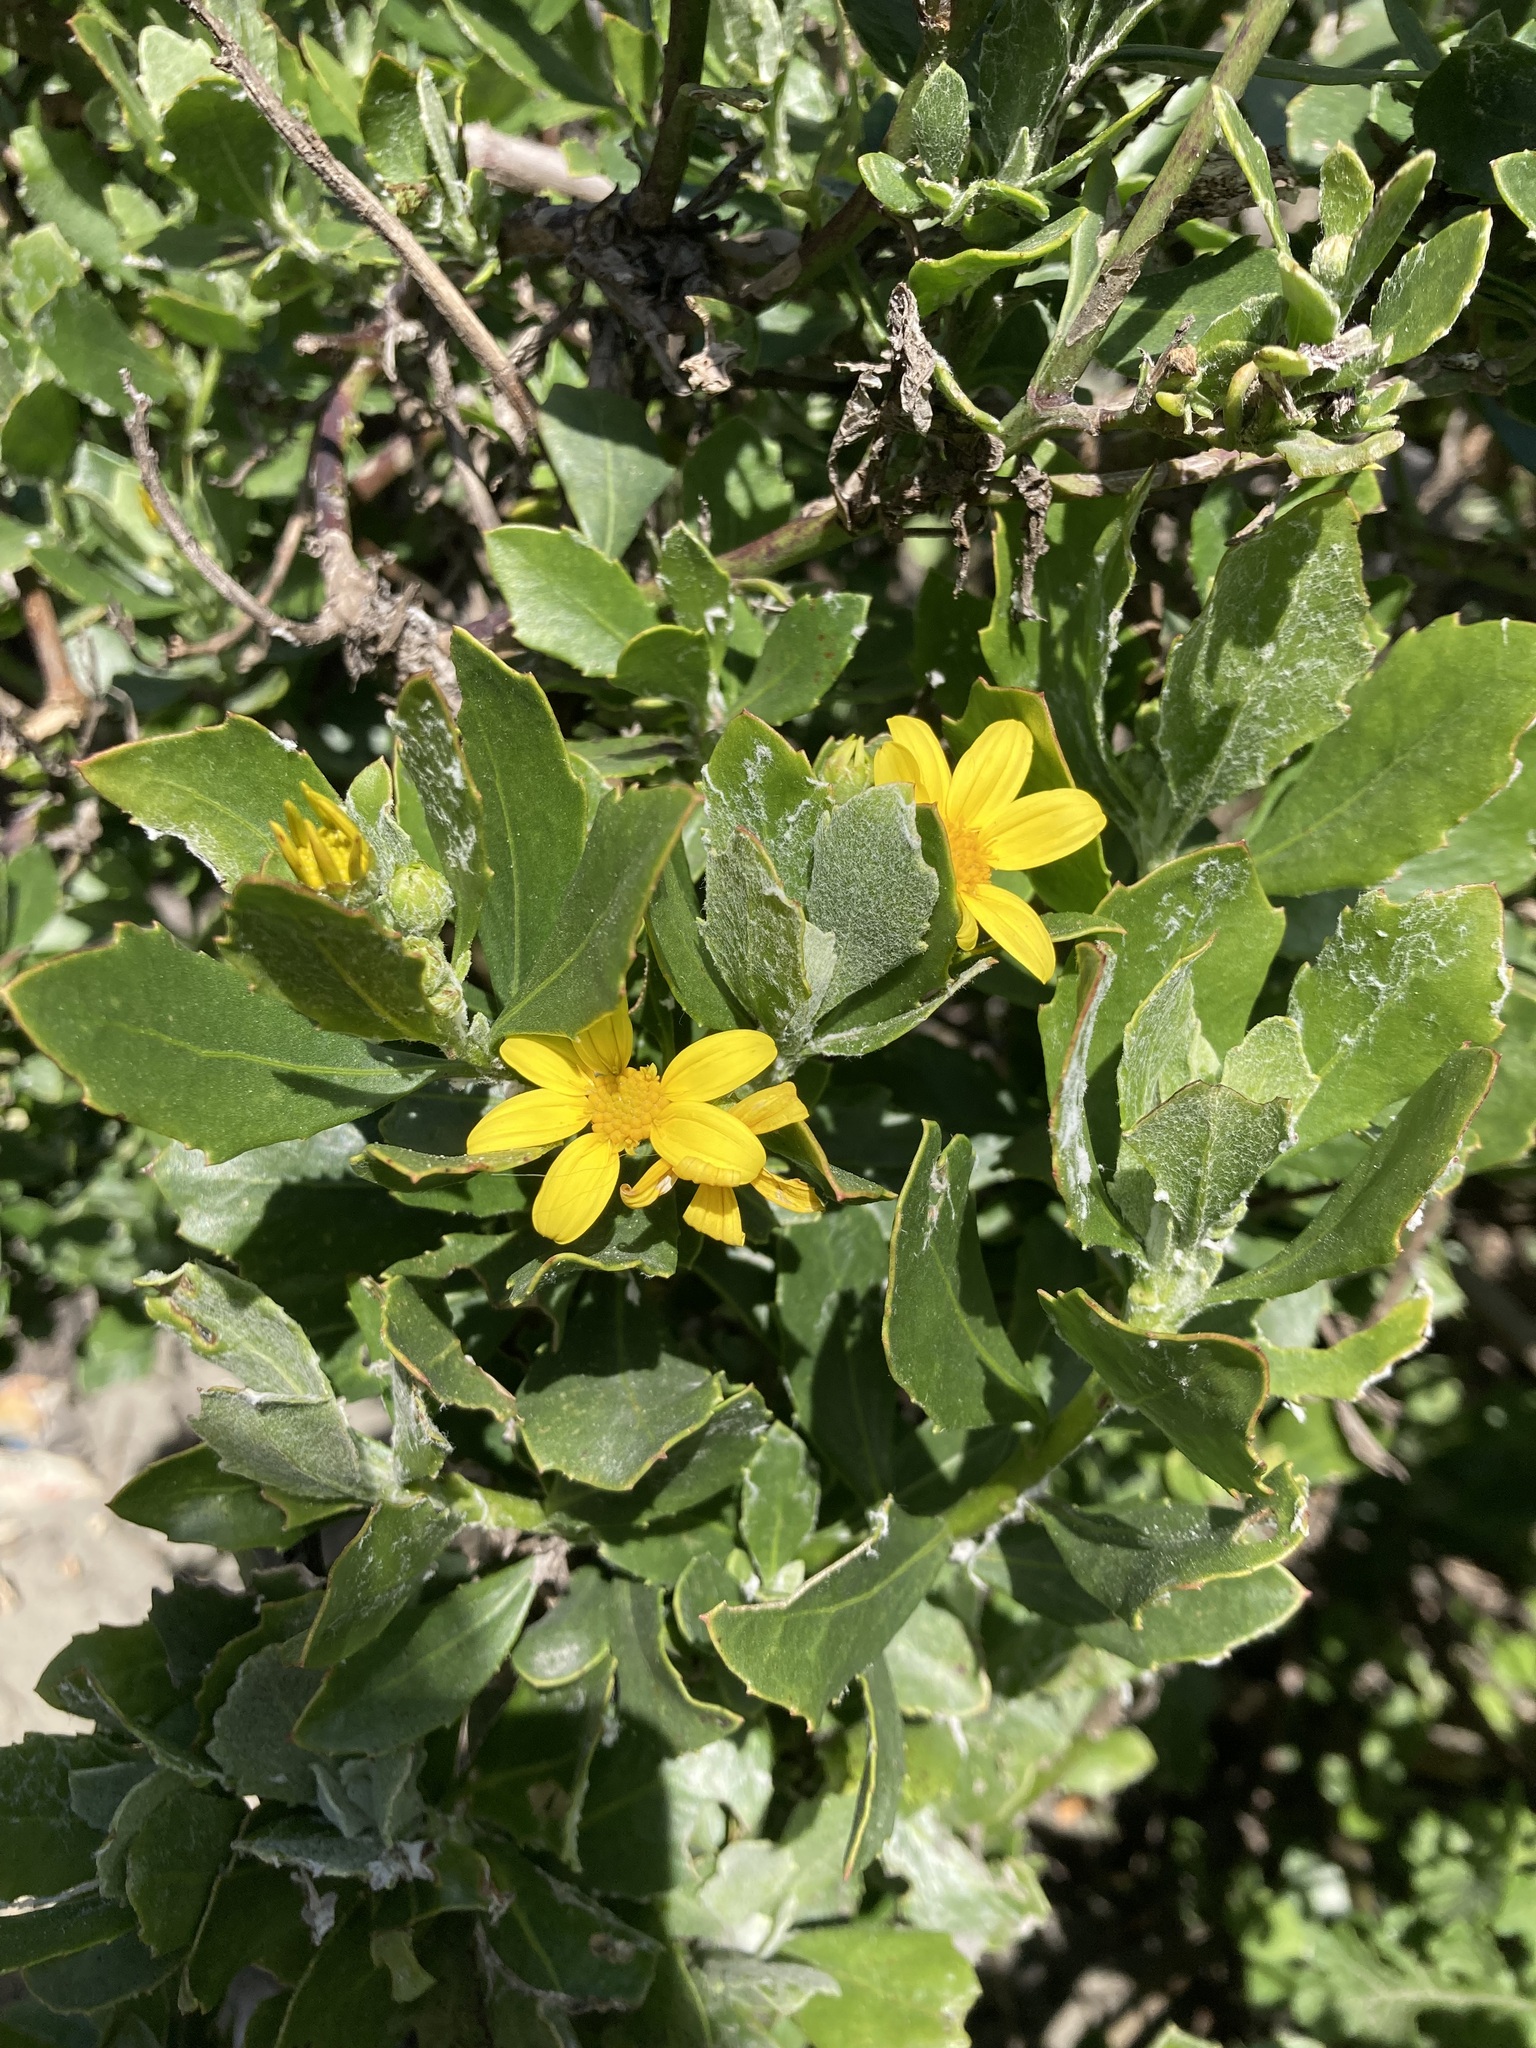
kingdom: Plantae
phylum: Tracheophyta
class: Magnoliopsida
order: Asterales
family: Asteraceae
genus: Osteospermum
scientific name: Osteospermum moniliferum
